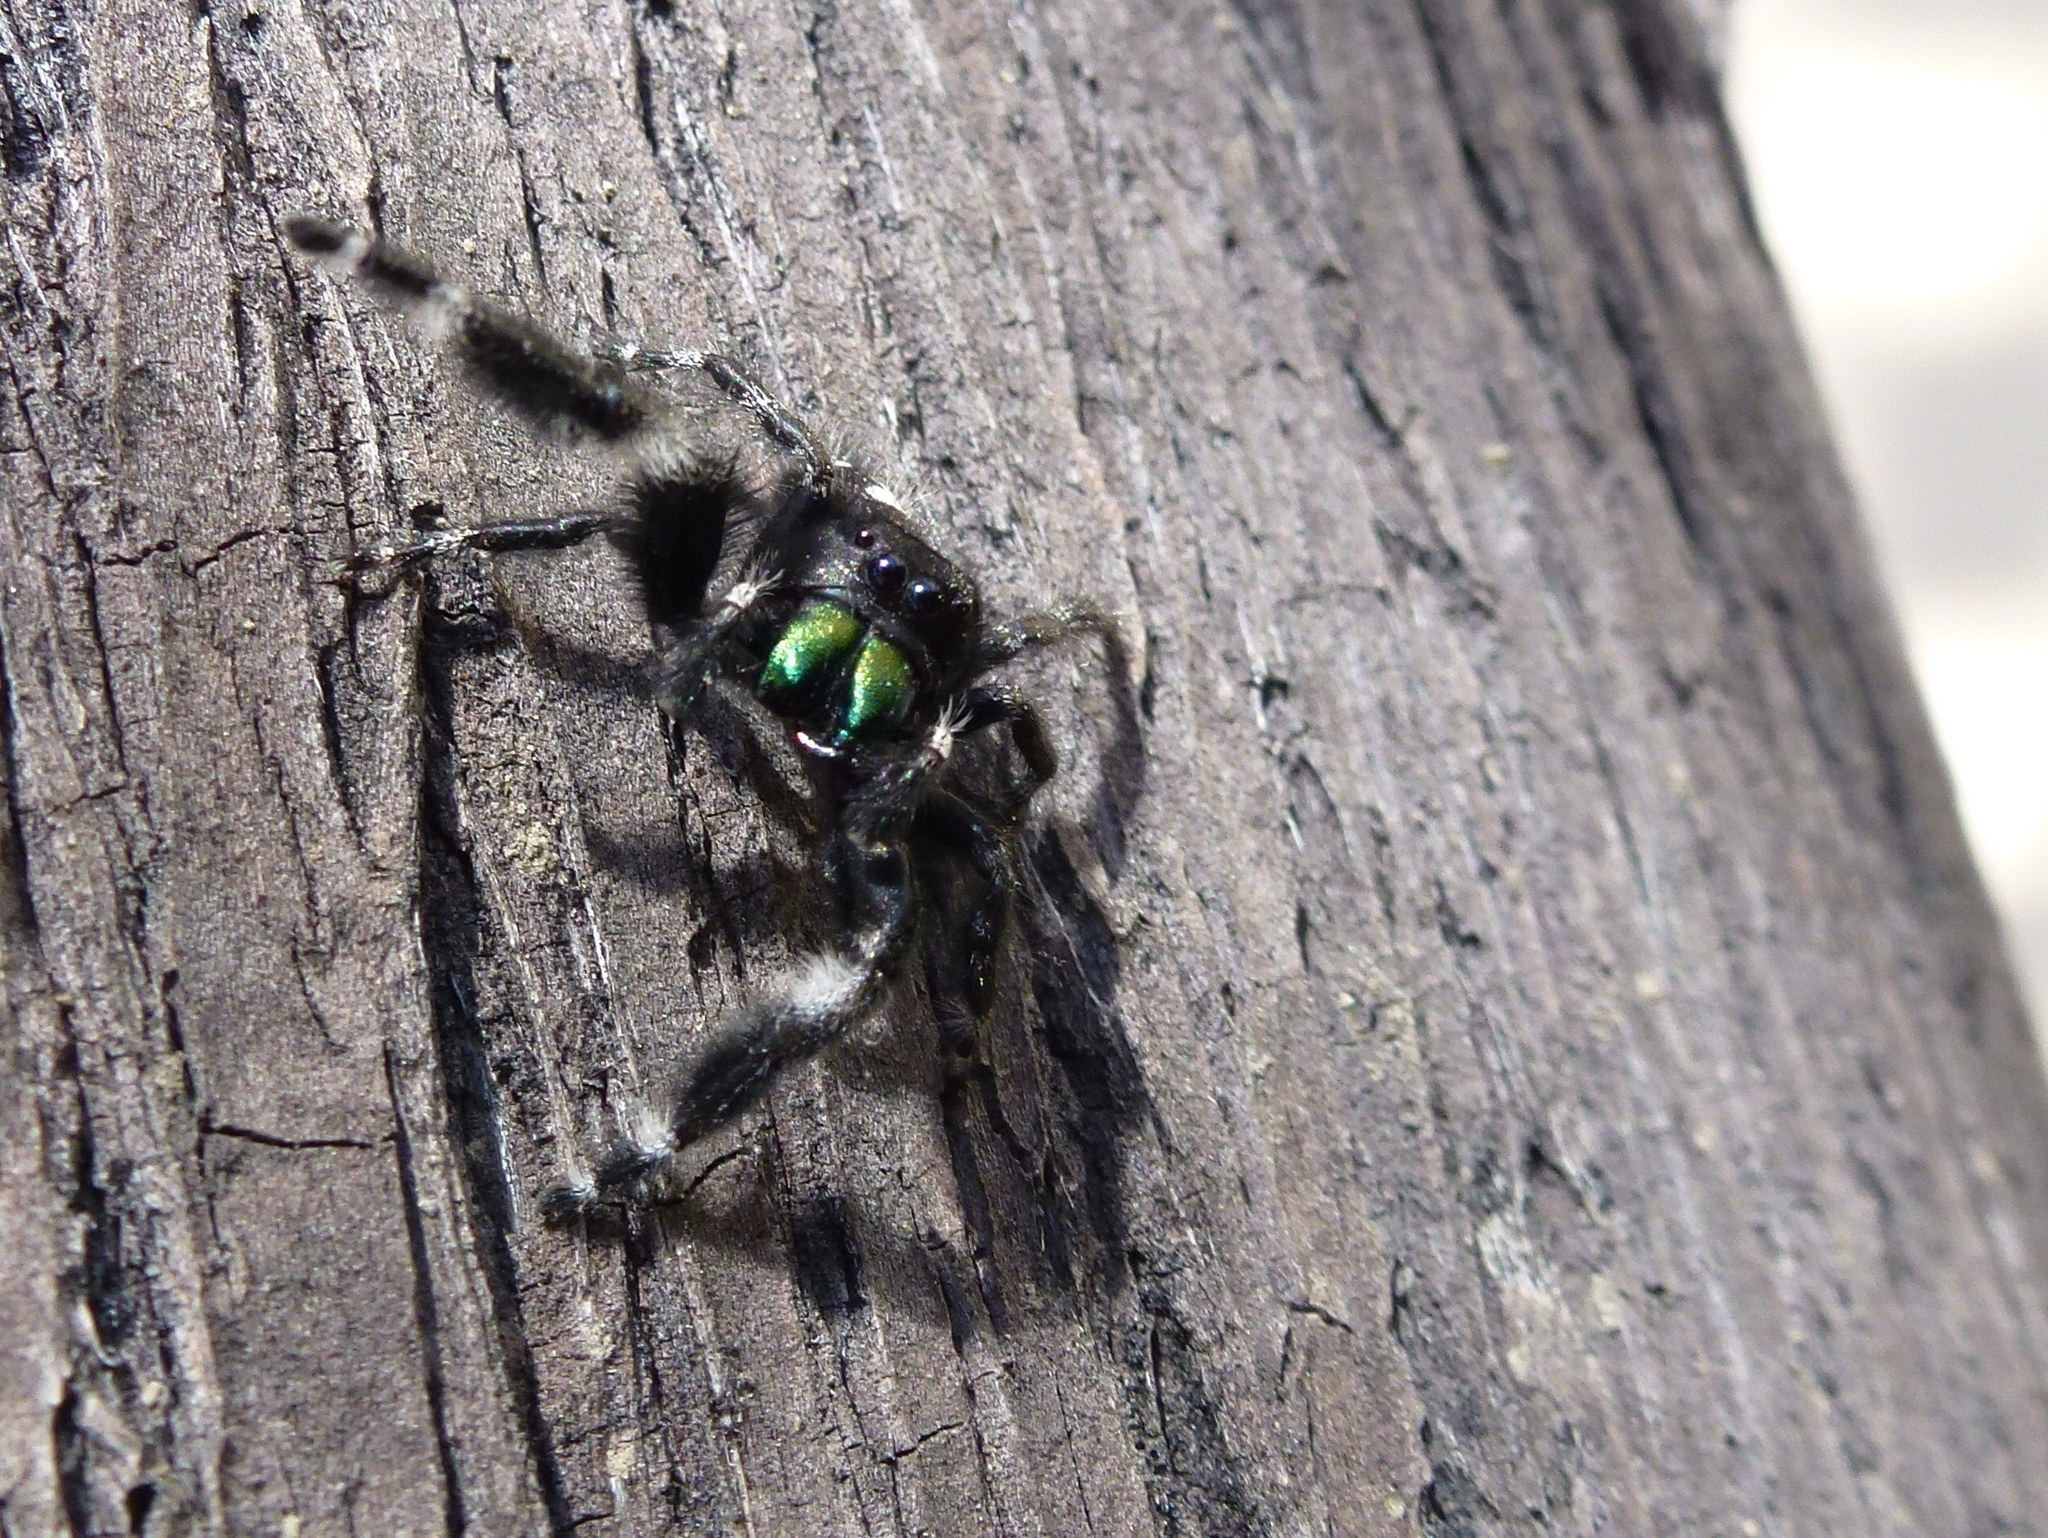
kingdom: Animalia
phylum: Arthropoda
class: Arachnida
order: Araneae
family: Salticidae
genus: Phidippus
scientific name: Phidippus audax
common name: Bold jumper
